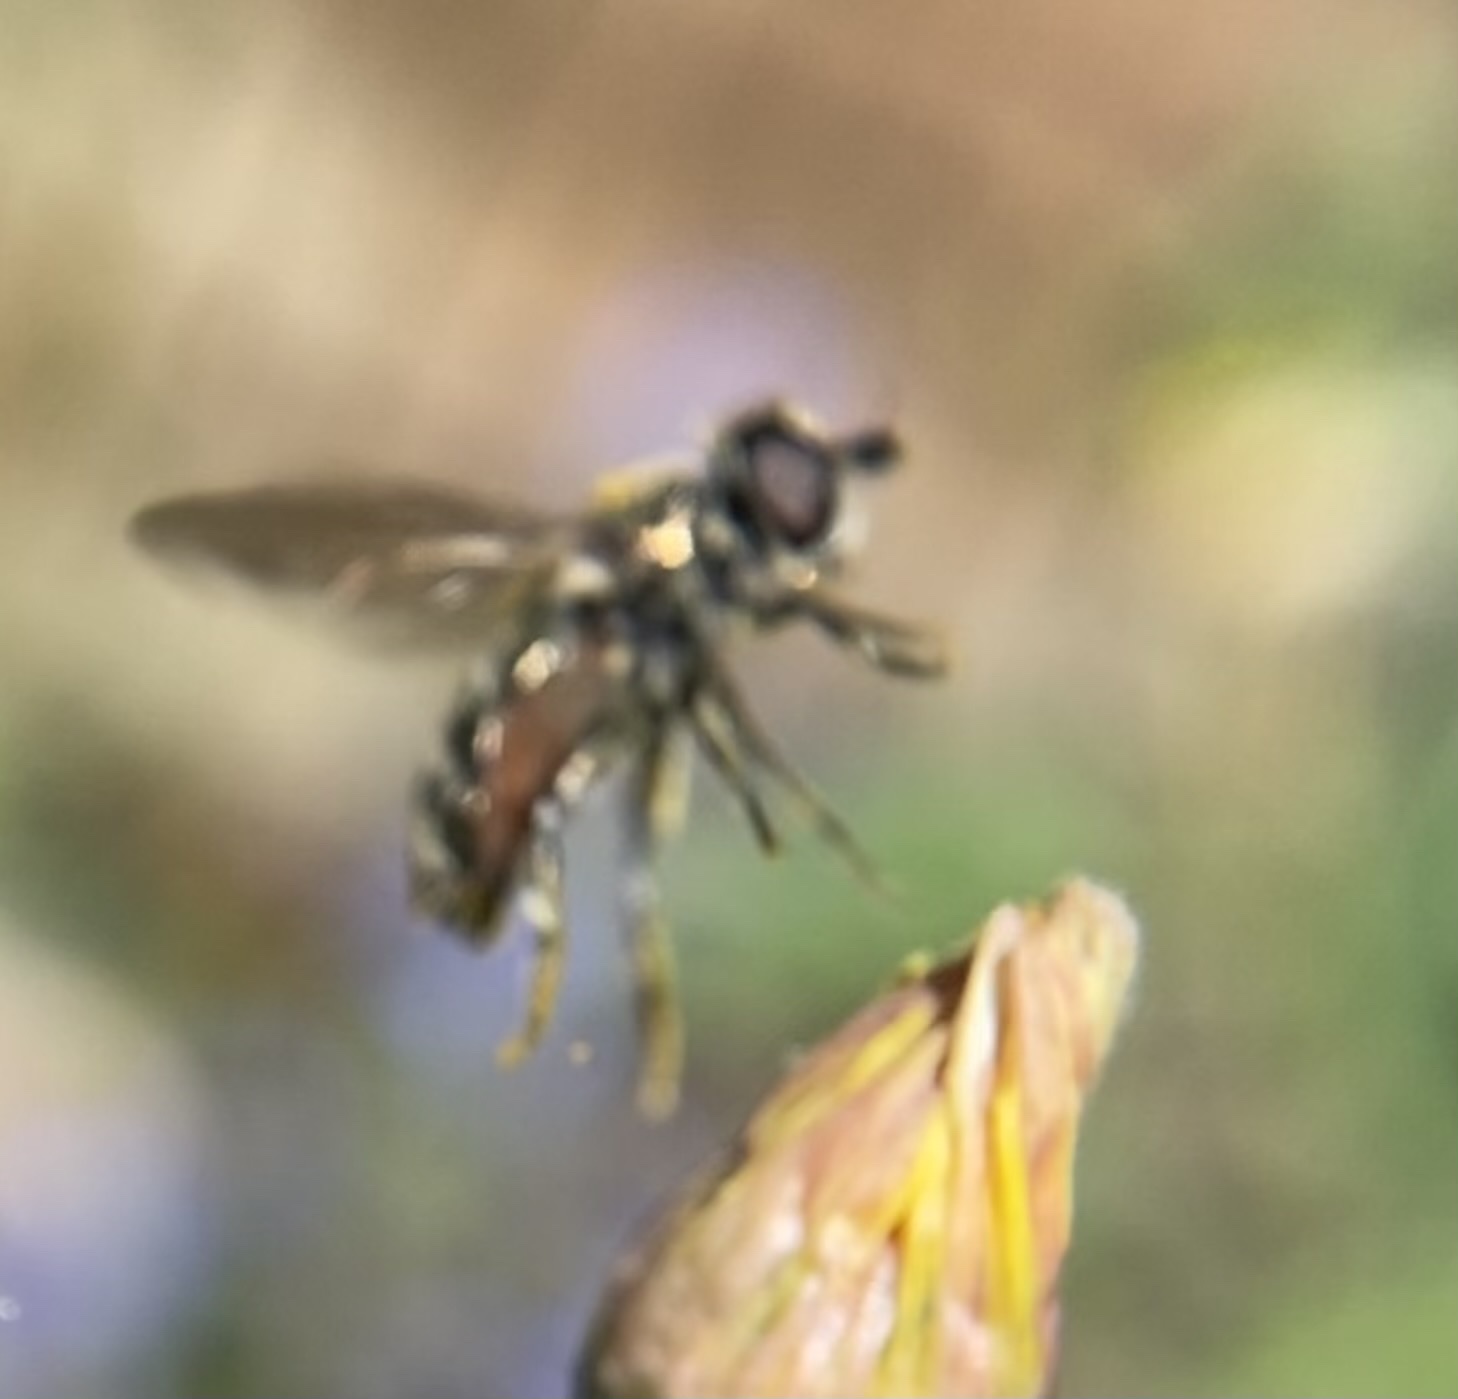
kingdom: Animalia
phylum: Arthropoda
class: Insecta
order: Diptera
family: Syrphidae
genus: Eumerus
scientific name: Eumerus
